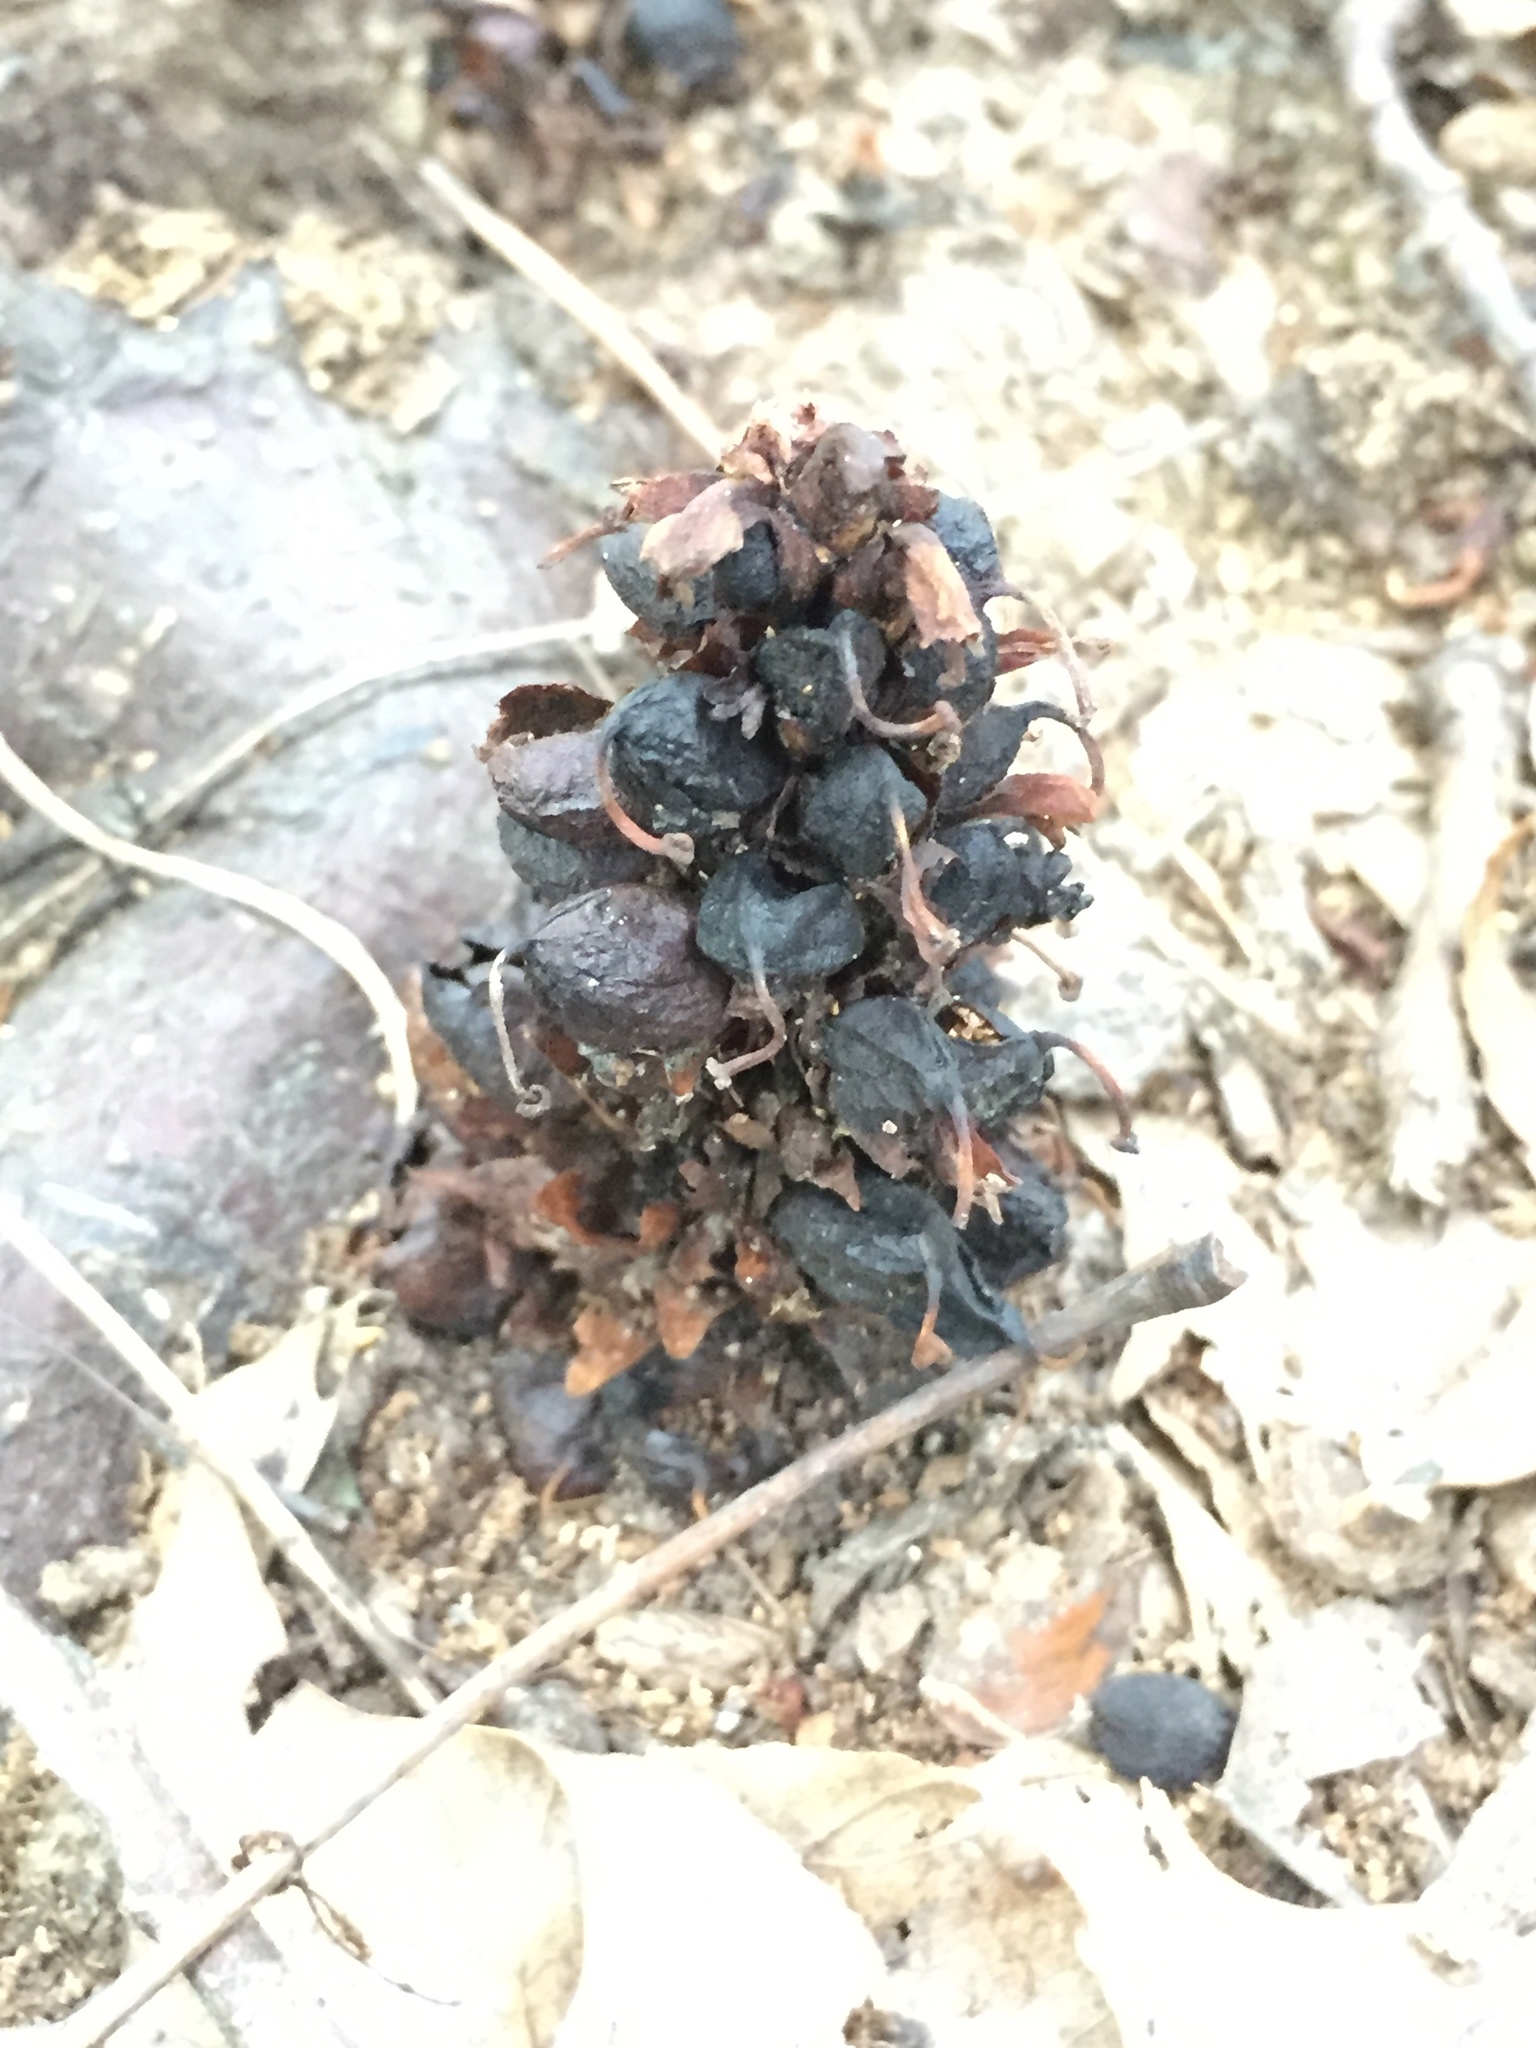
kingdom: Plantae
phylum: Tracheophyta
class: Magnoliopsida
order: Lamiales
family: Orobanchaceae
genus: Conopholis
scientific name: Conopholis americana
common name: American cancer-root
